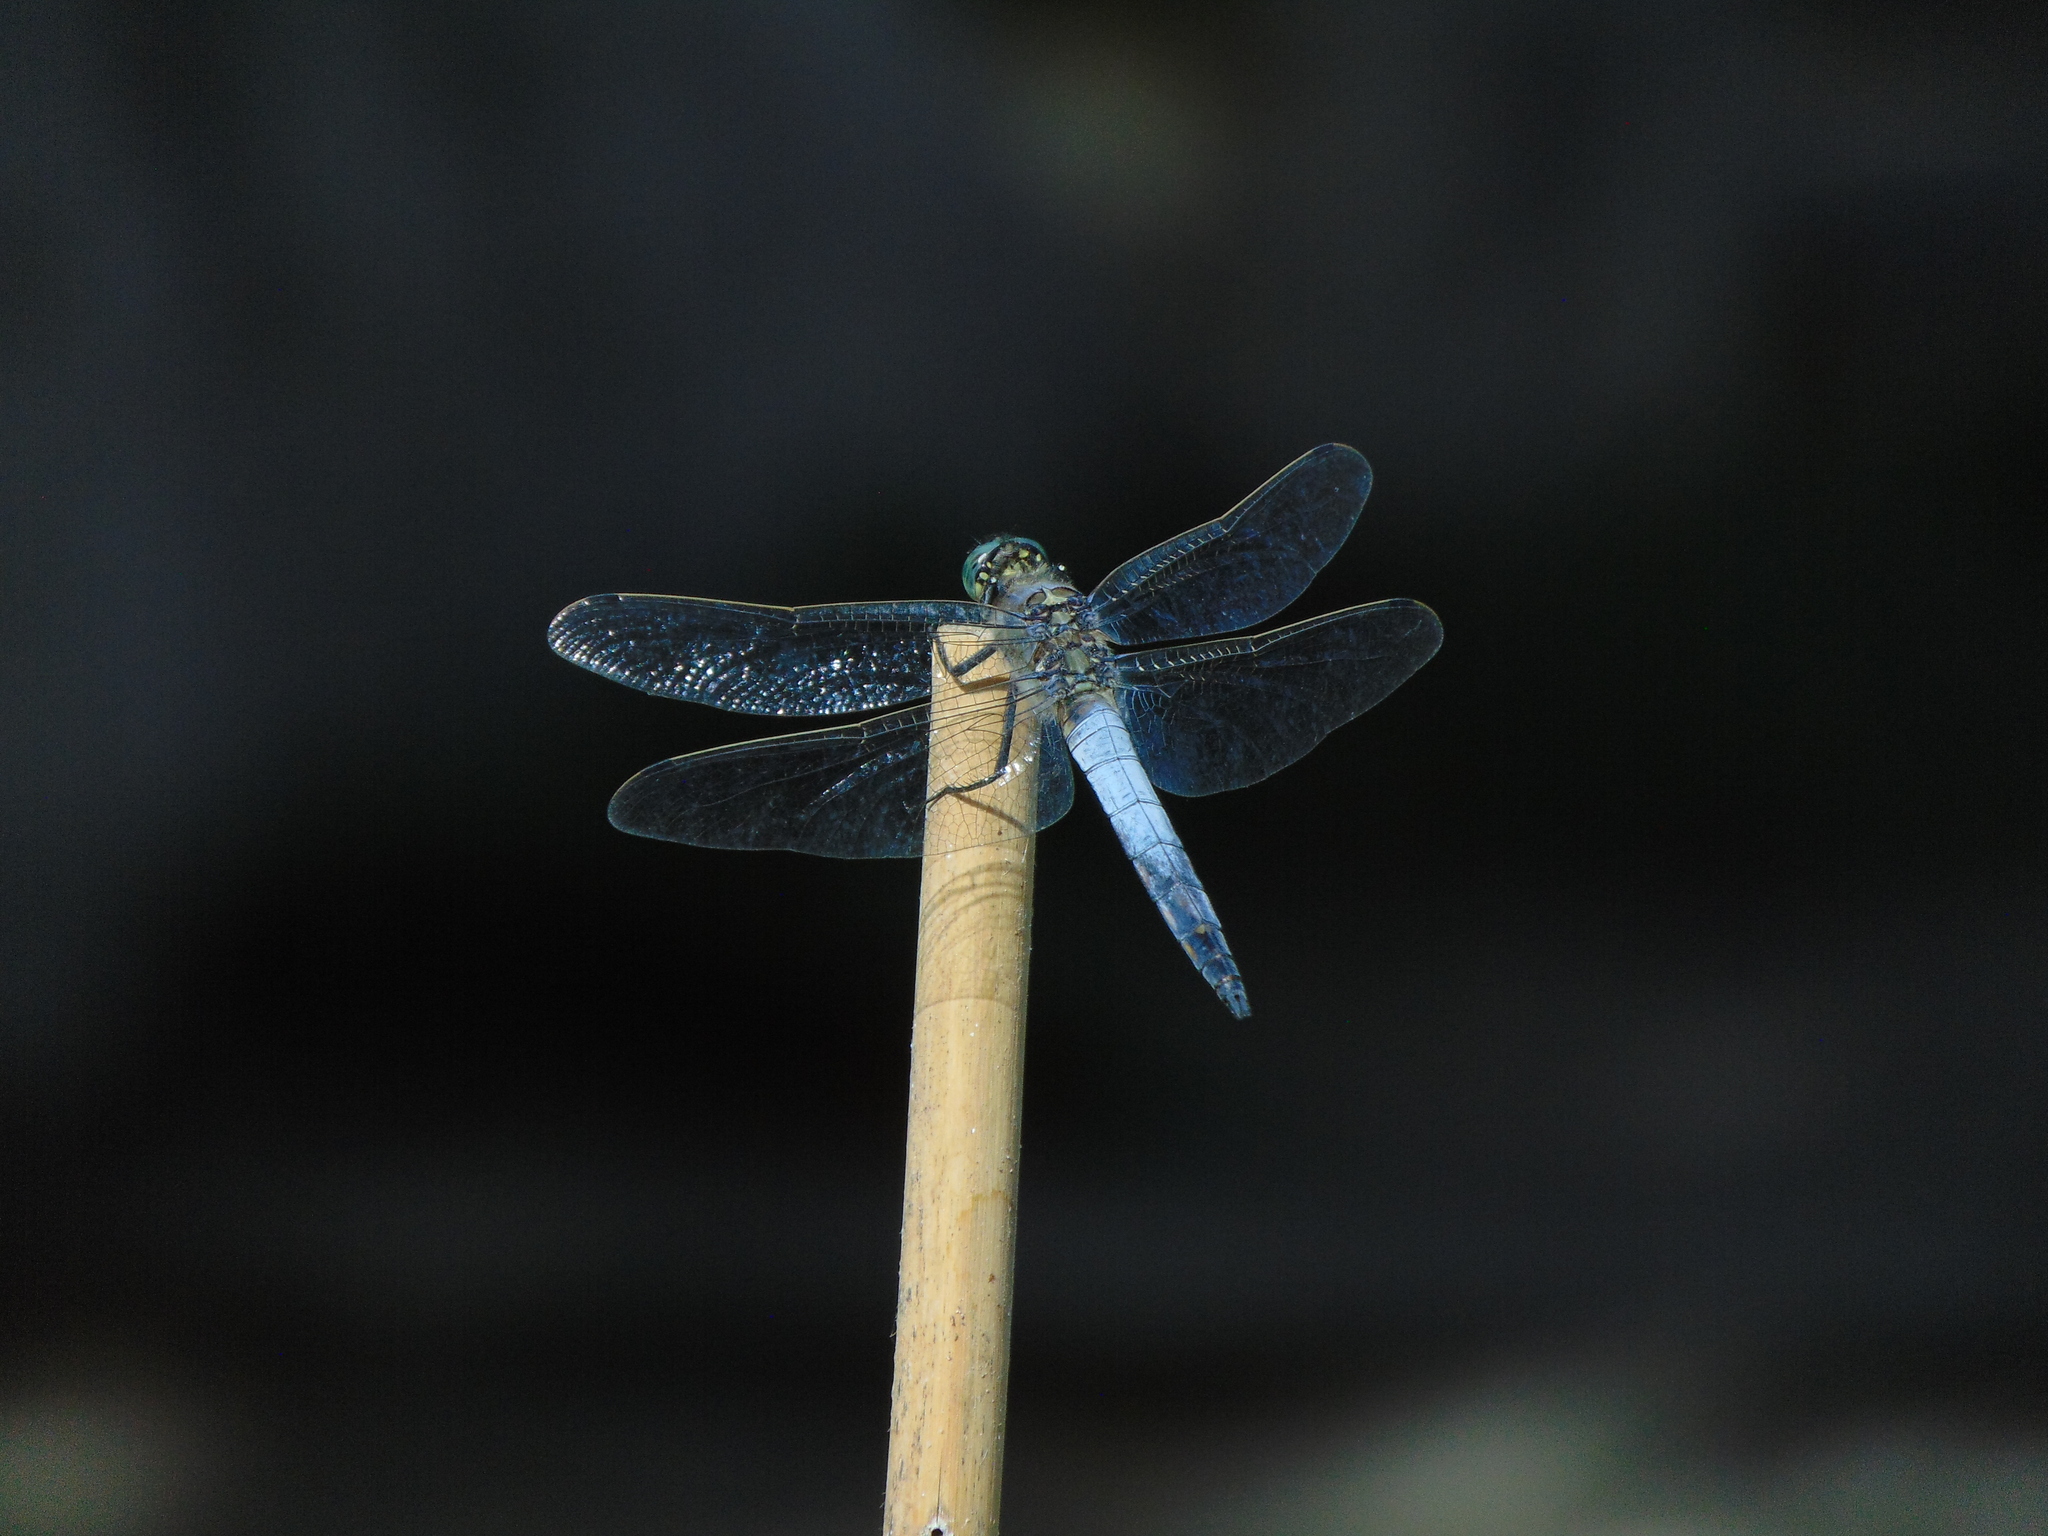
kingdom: Animalia
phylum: Arthropoda
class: Insecta
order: Odonata
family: Libellulidae
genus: Orthetrum
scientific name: Orthetrum cancellatum
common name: Black-tailed skimmer
